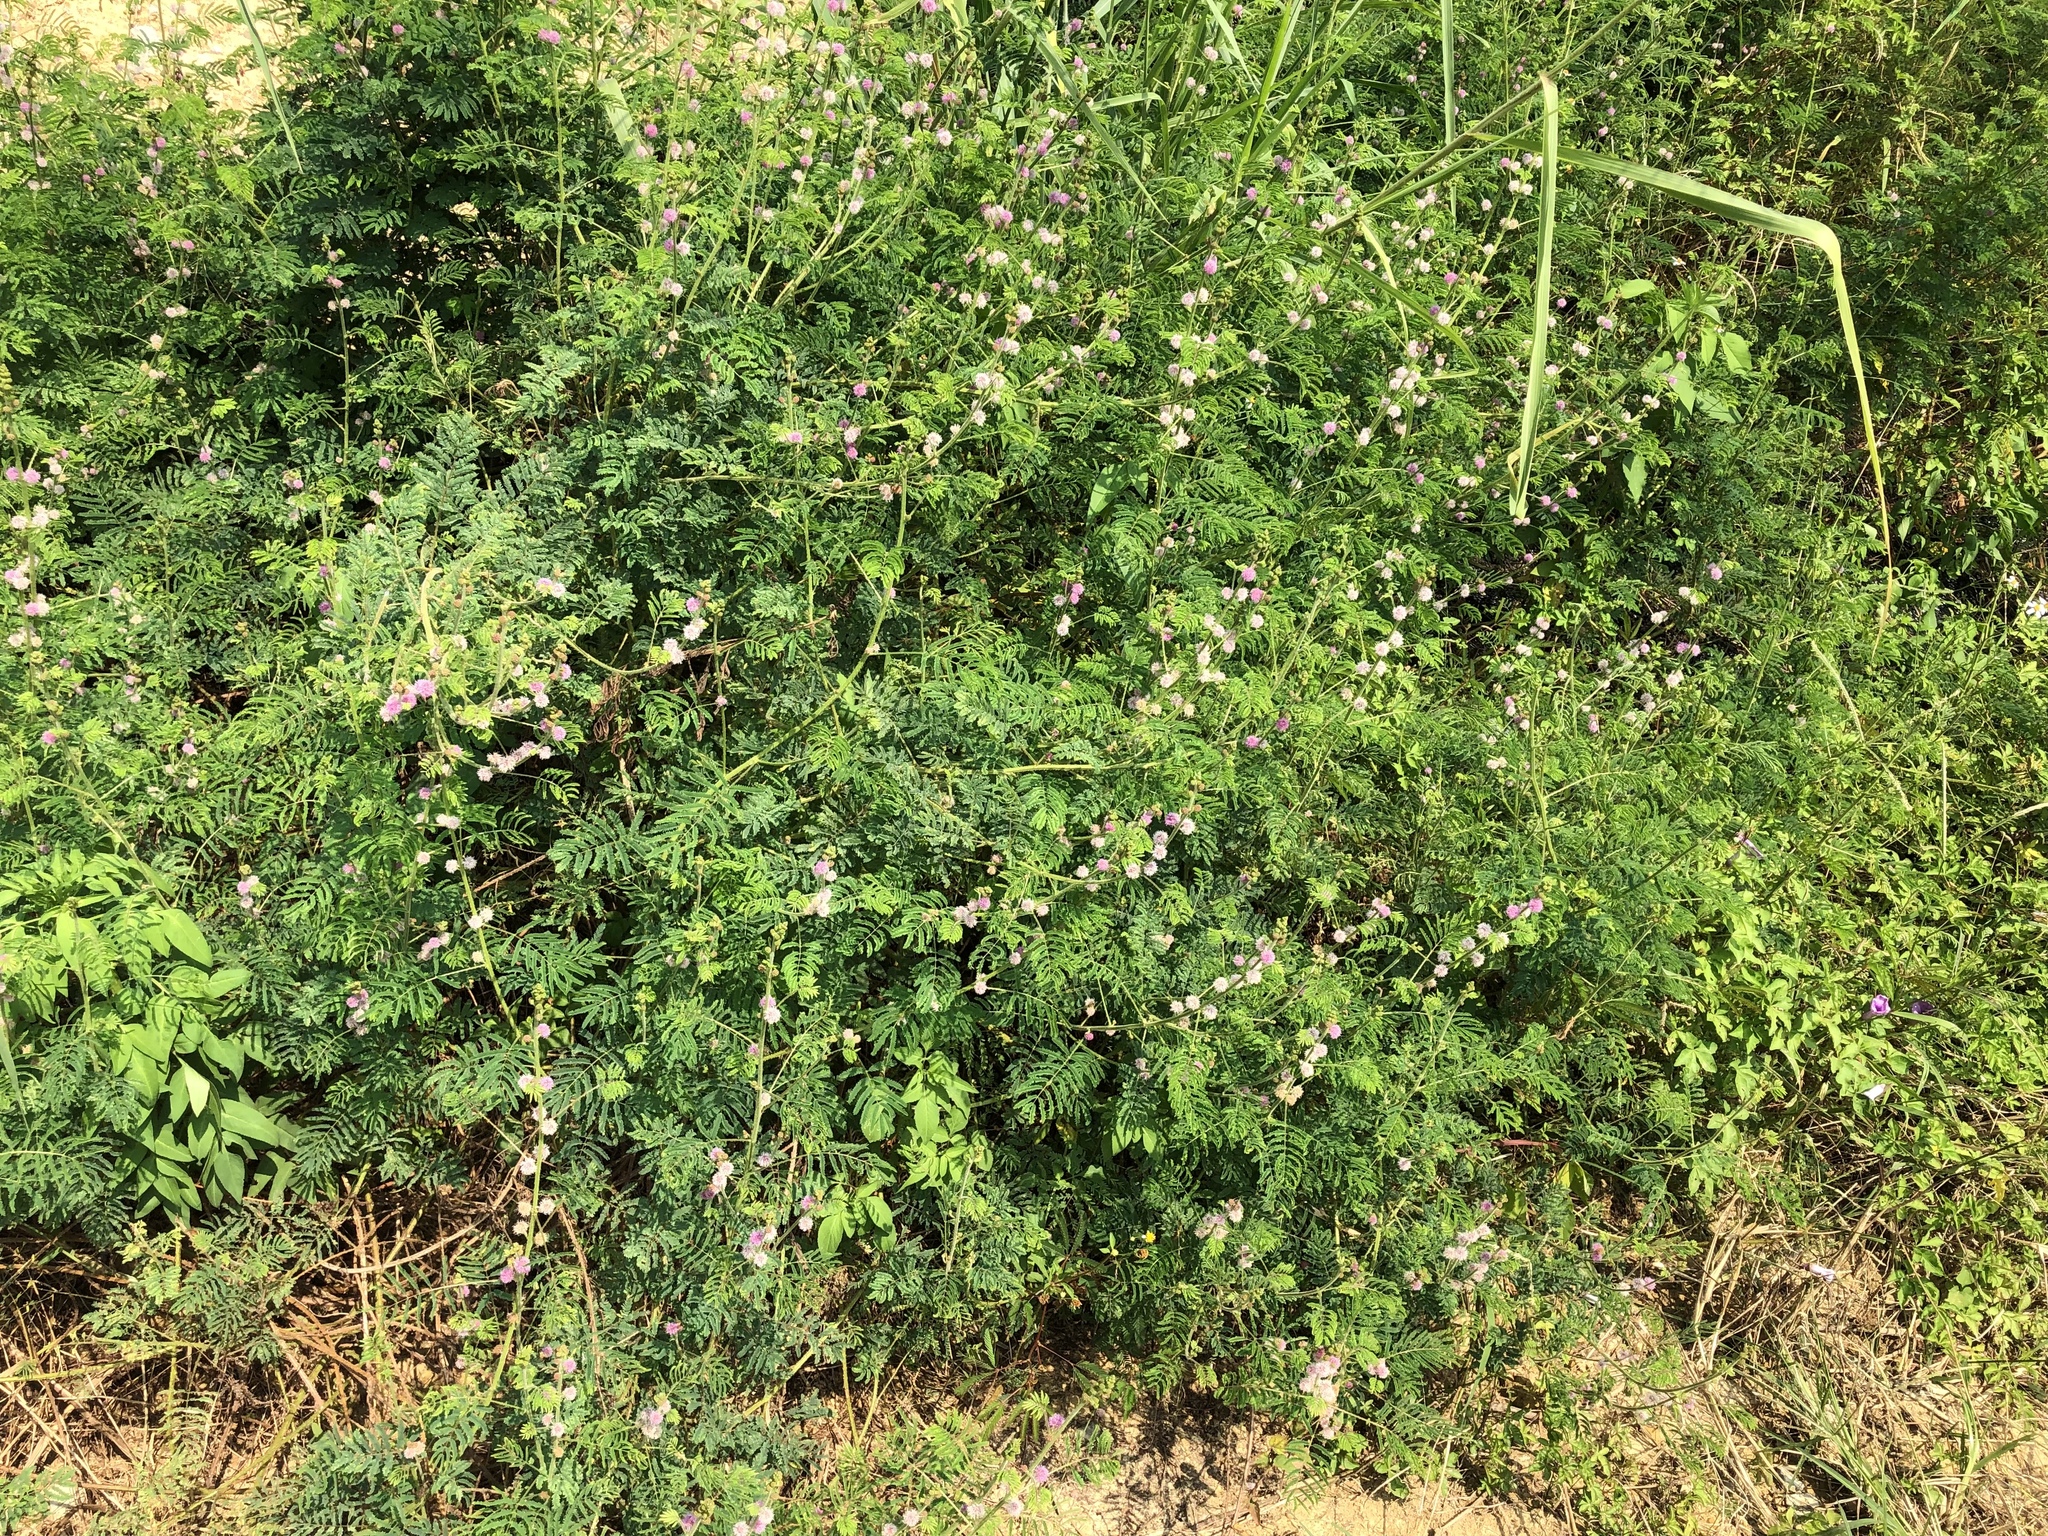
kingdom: Plantae
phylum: Tracheophyta
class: Magnoliopsida
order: Fabales
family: Fabaceae
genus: Mimosa
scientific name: Mimosa diplotricha
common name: Giant sensitive-plant
